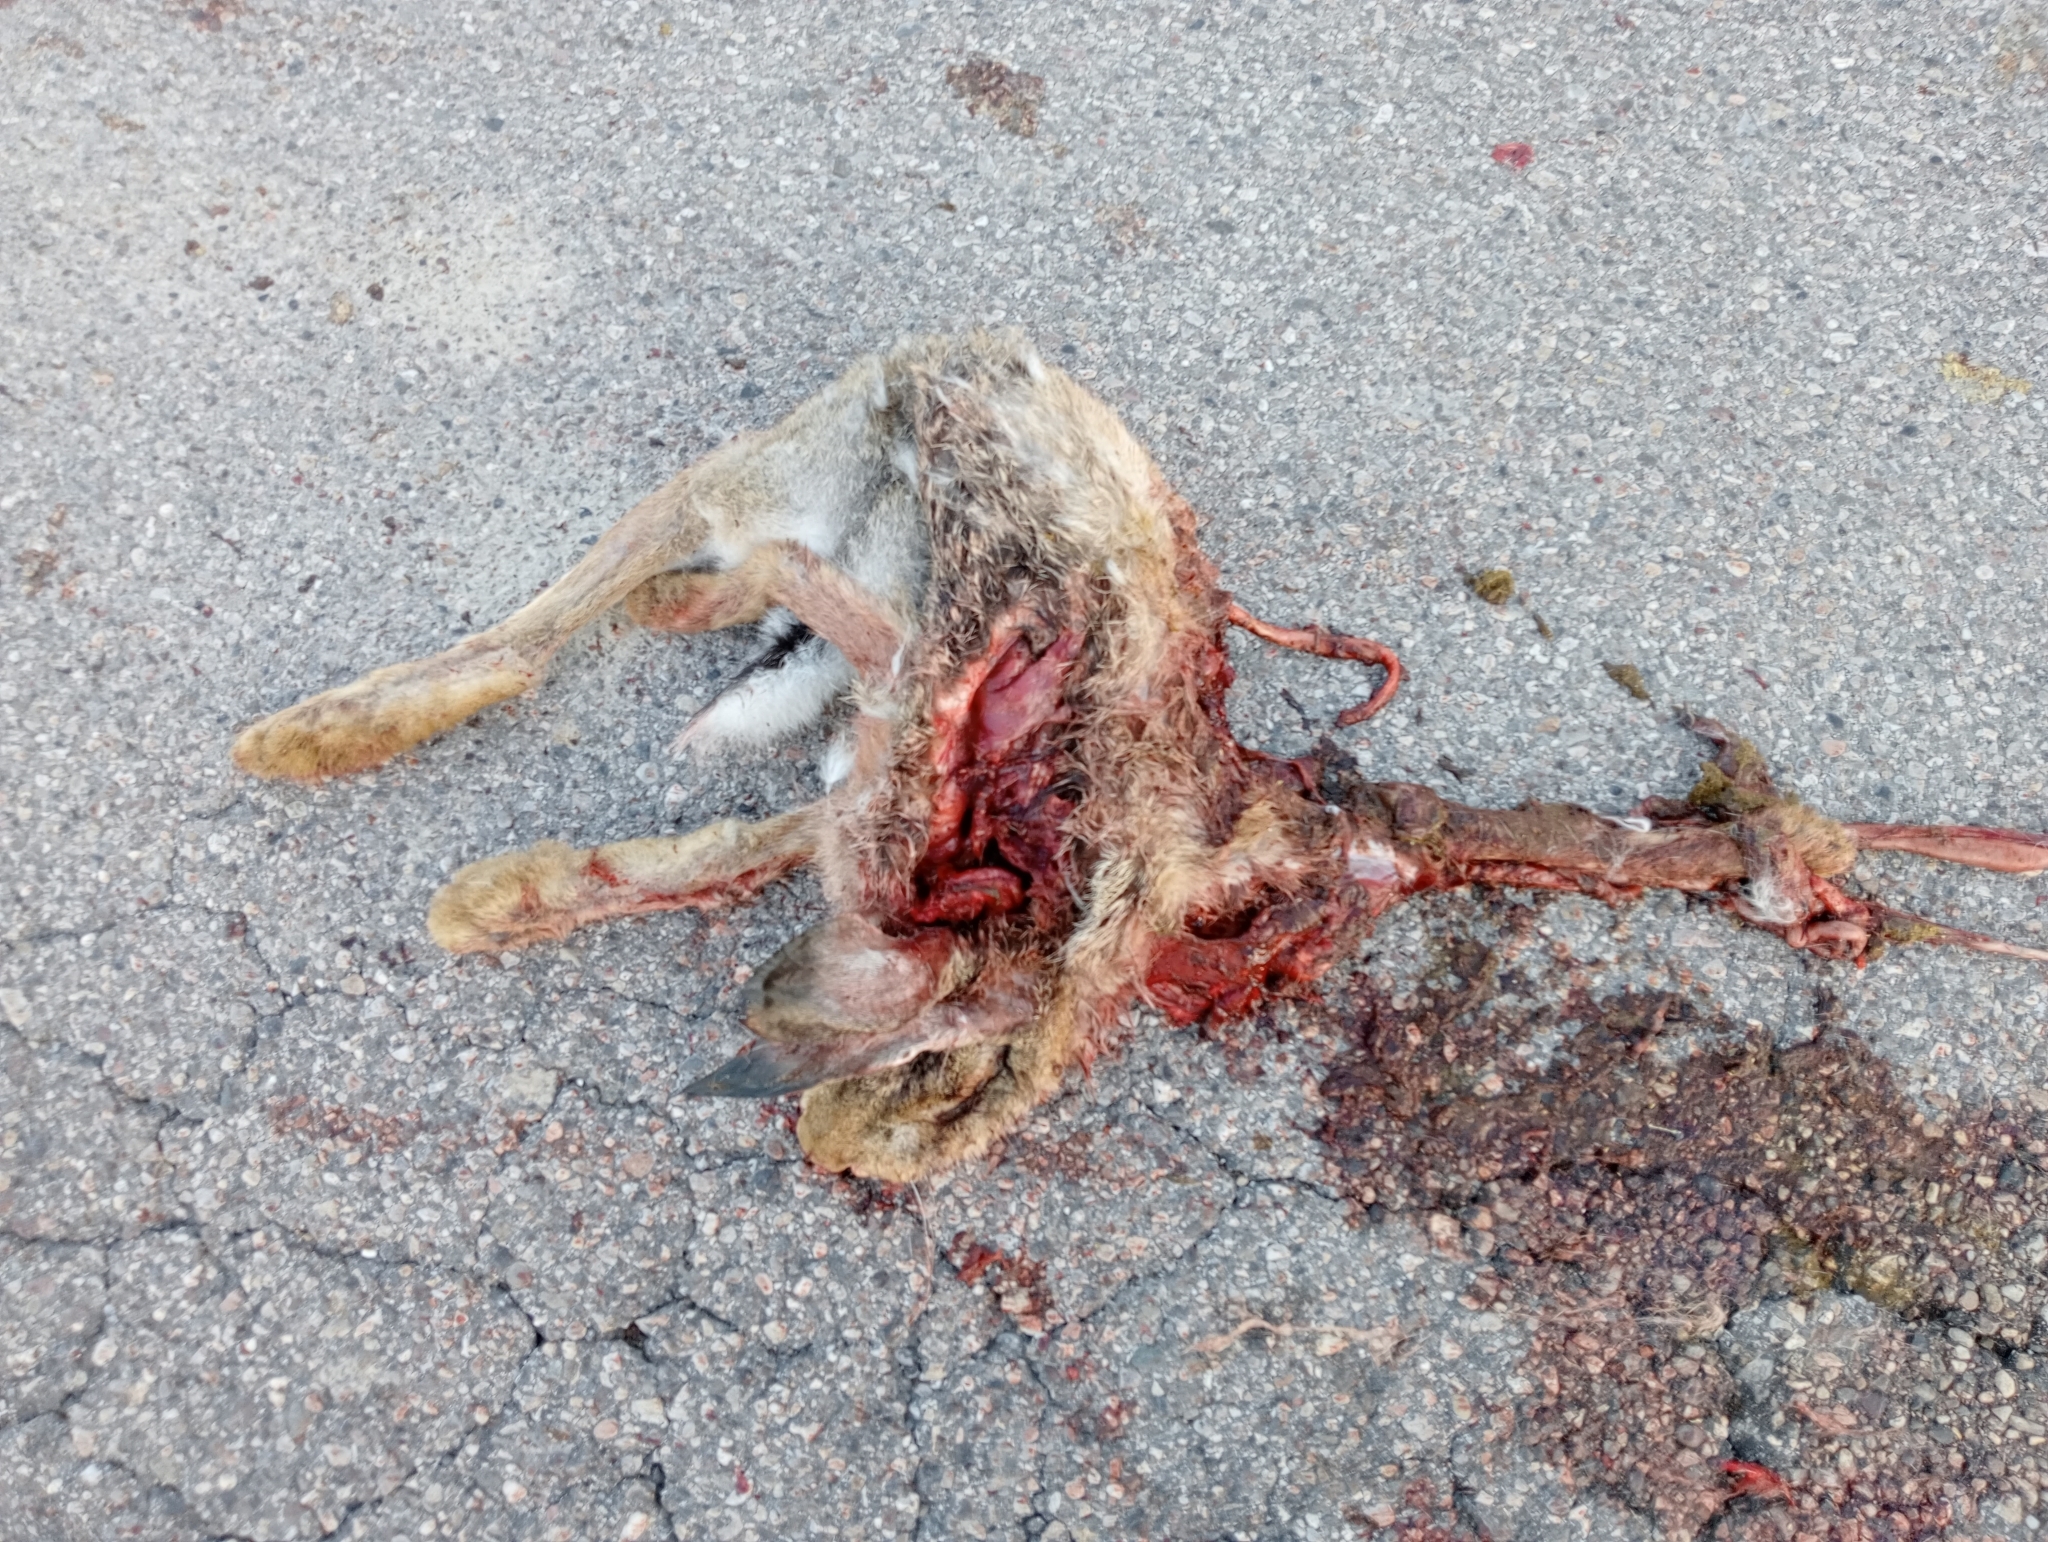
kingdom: Animalia
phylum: Chordata
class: Mammalia
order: Lagomorpha
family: Leporidae
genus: Lepus
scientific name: Lepus europaeus
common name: European hare
